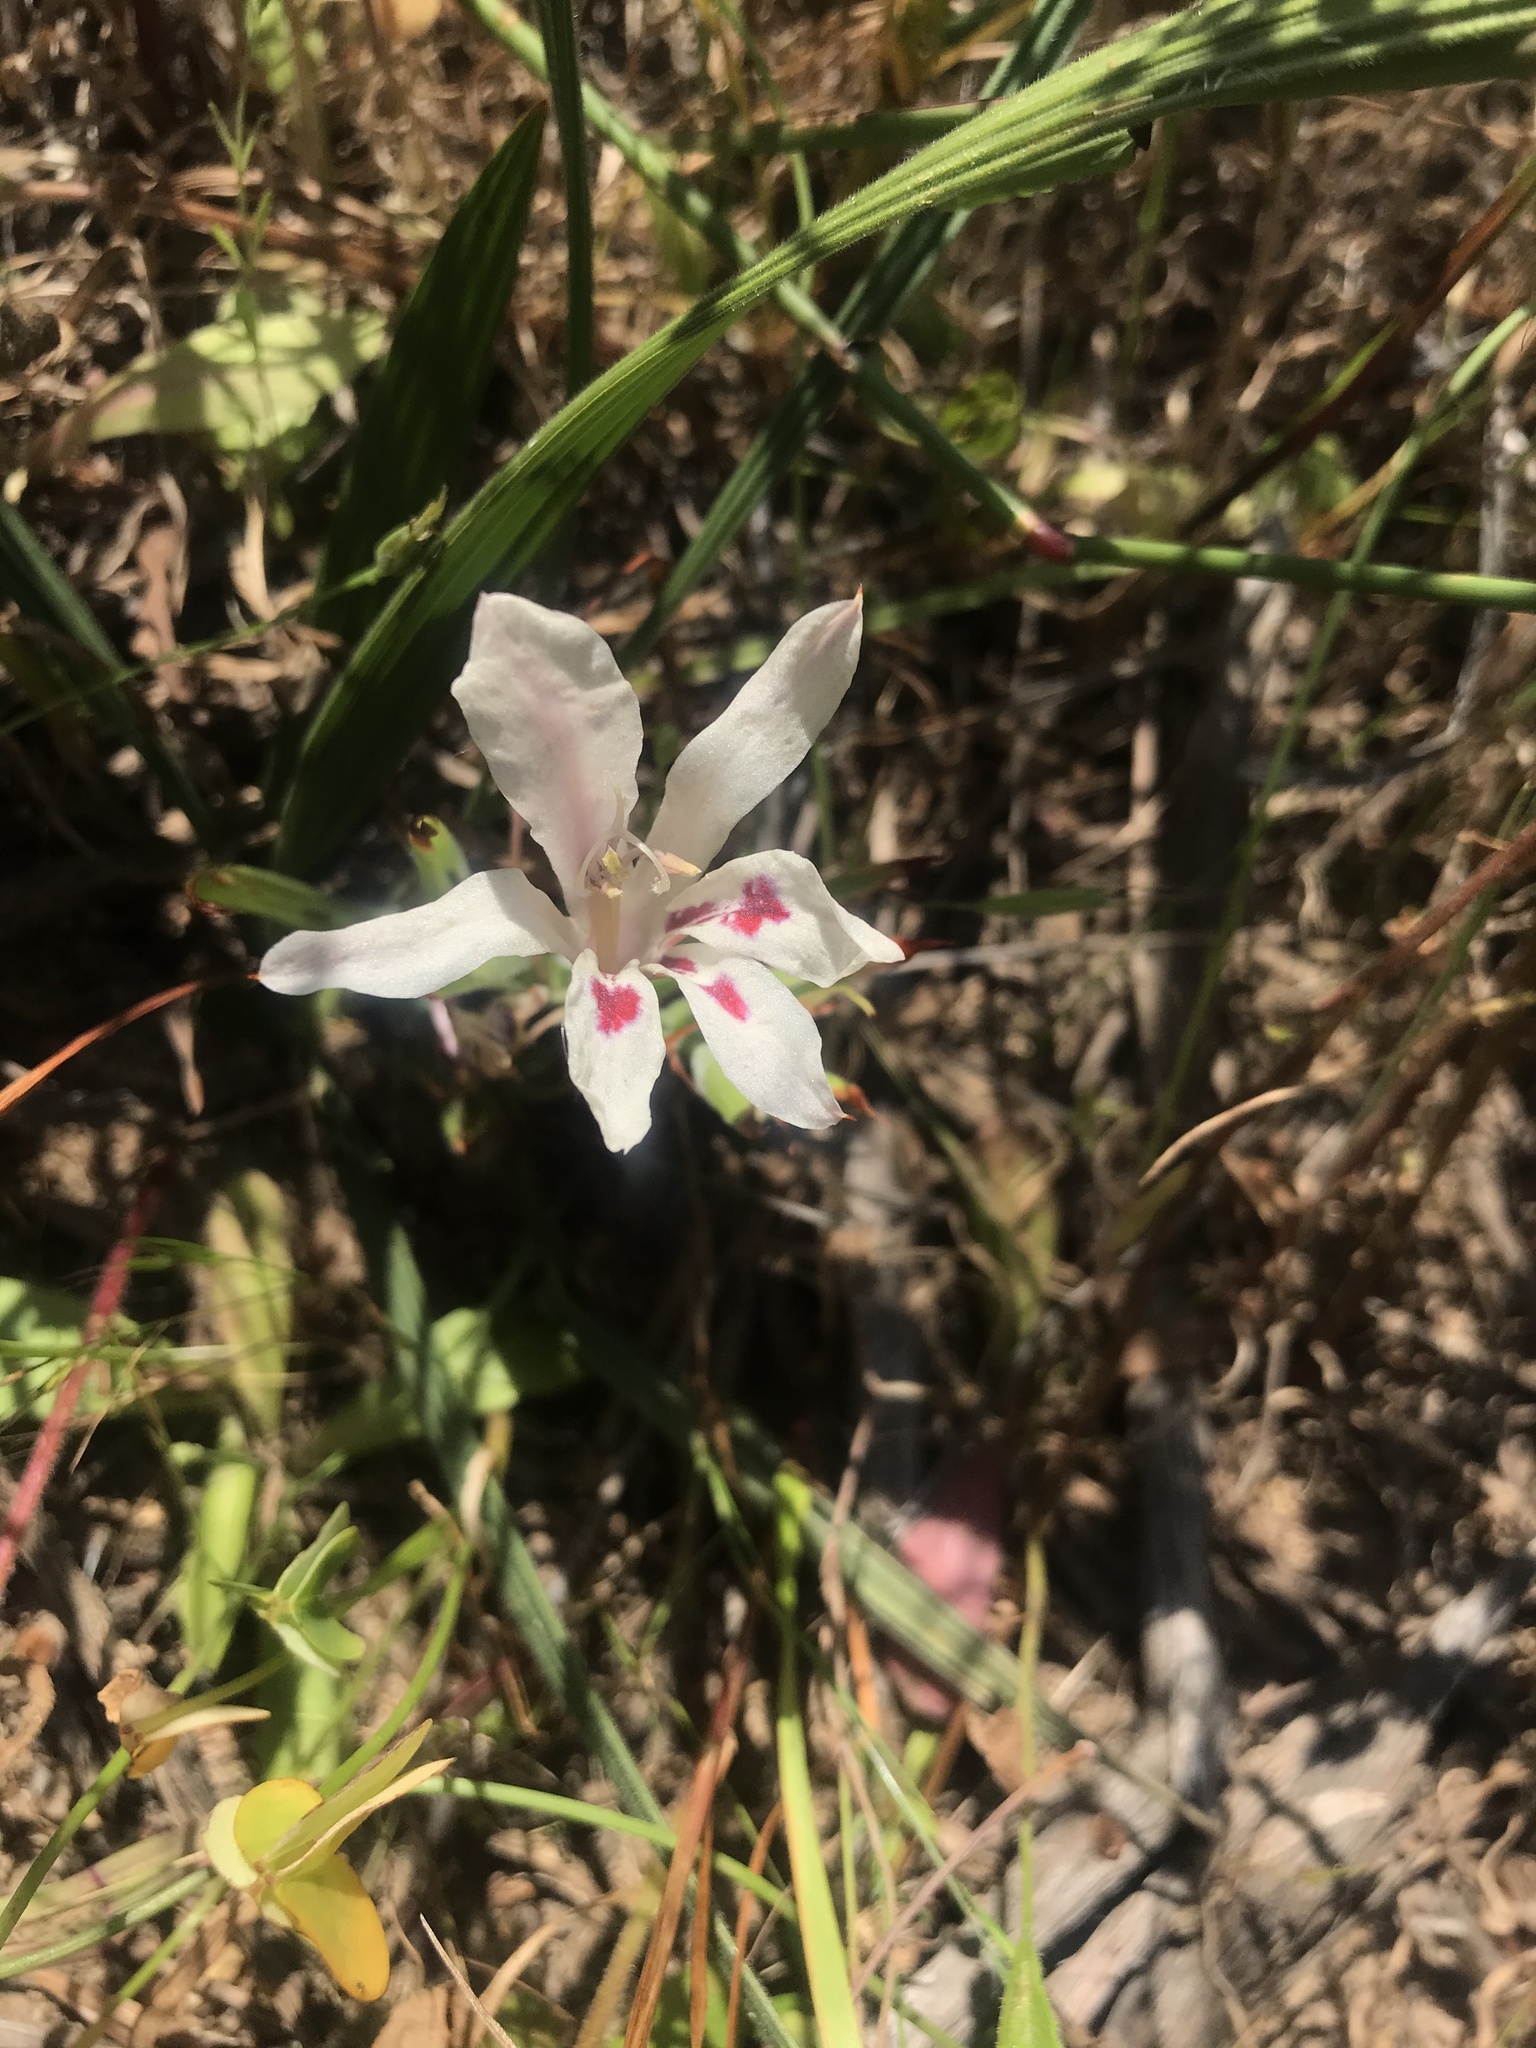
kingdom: Plantae
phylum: Tracheophyta
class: Liliopsida
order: Asparagales
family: Iridaceae
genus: Babiana
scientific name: Babiana tubulosa
